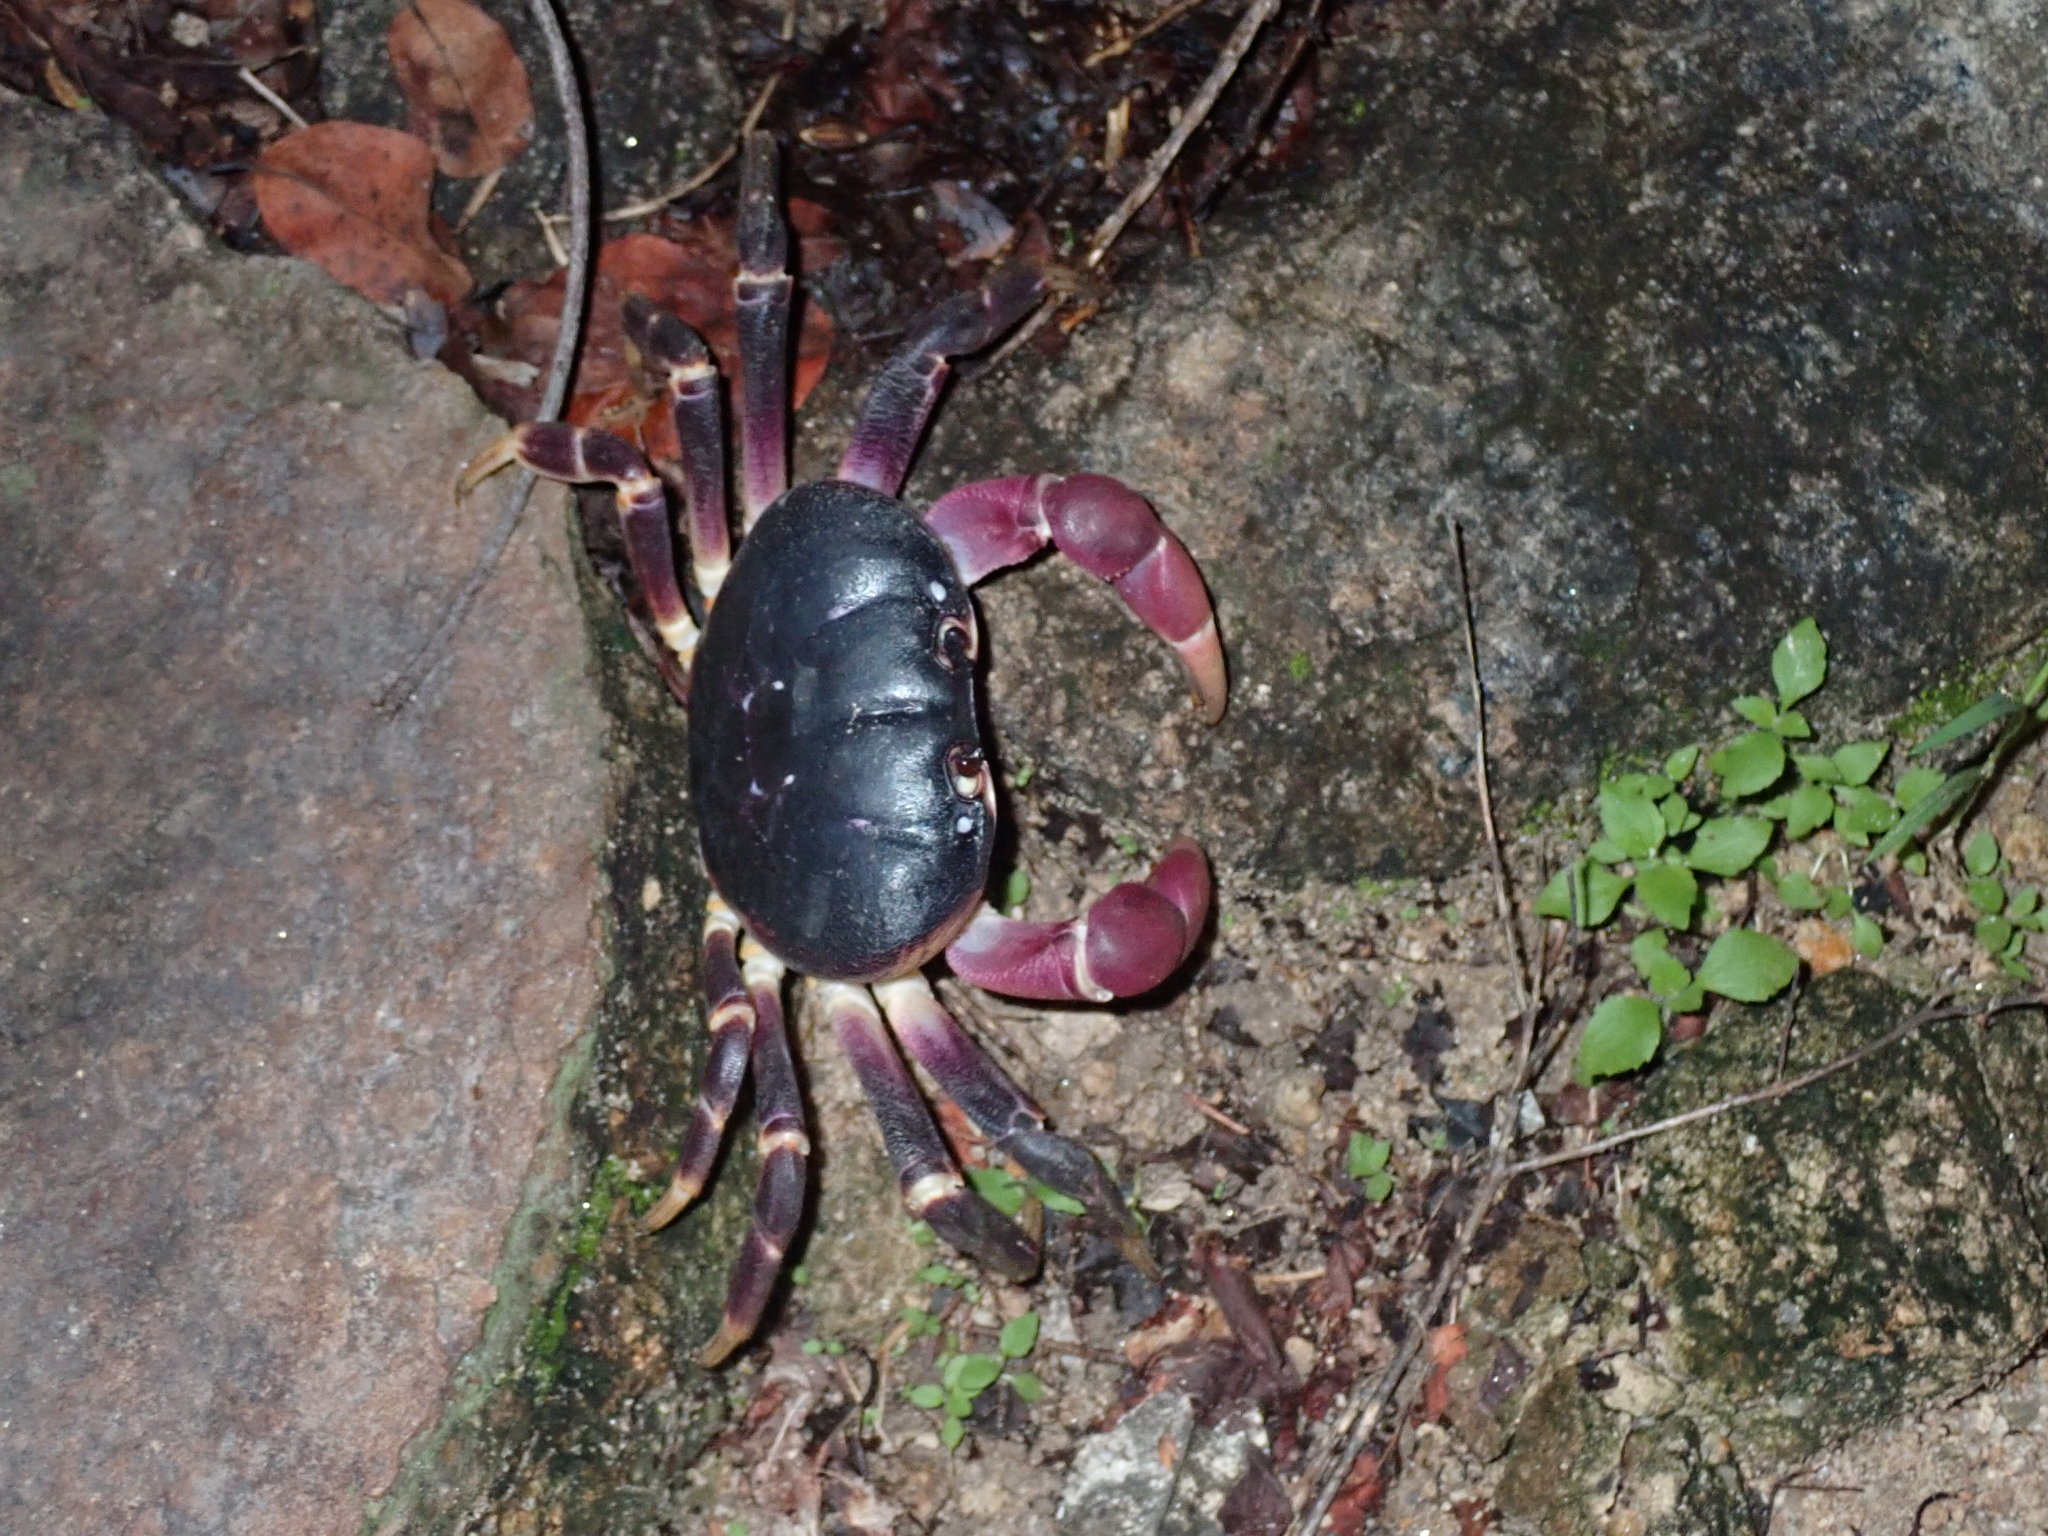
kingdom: Animalia
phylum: Arthropoda
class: Malacostraca
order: Decapoda
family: Gecarcinidae
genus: Gecarcoidea
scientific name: Gecarcoidea lalandii
